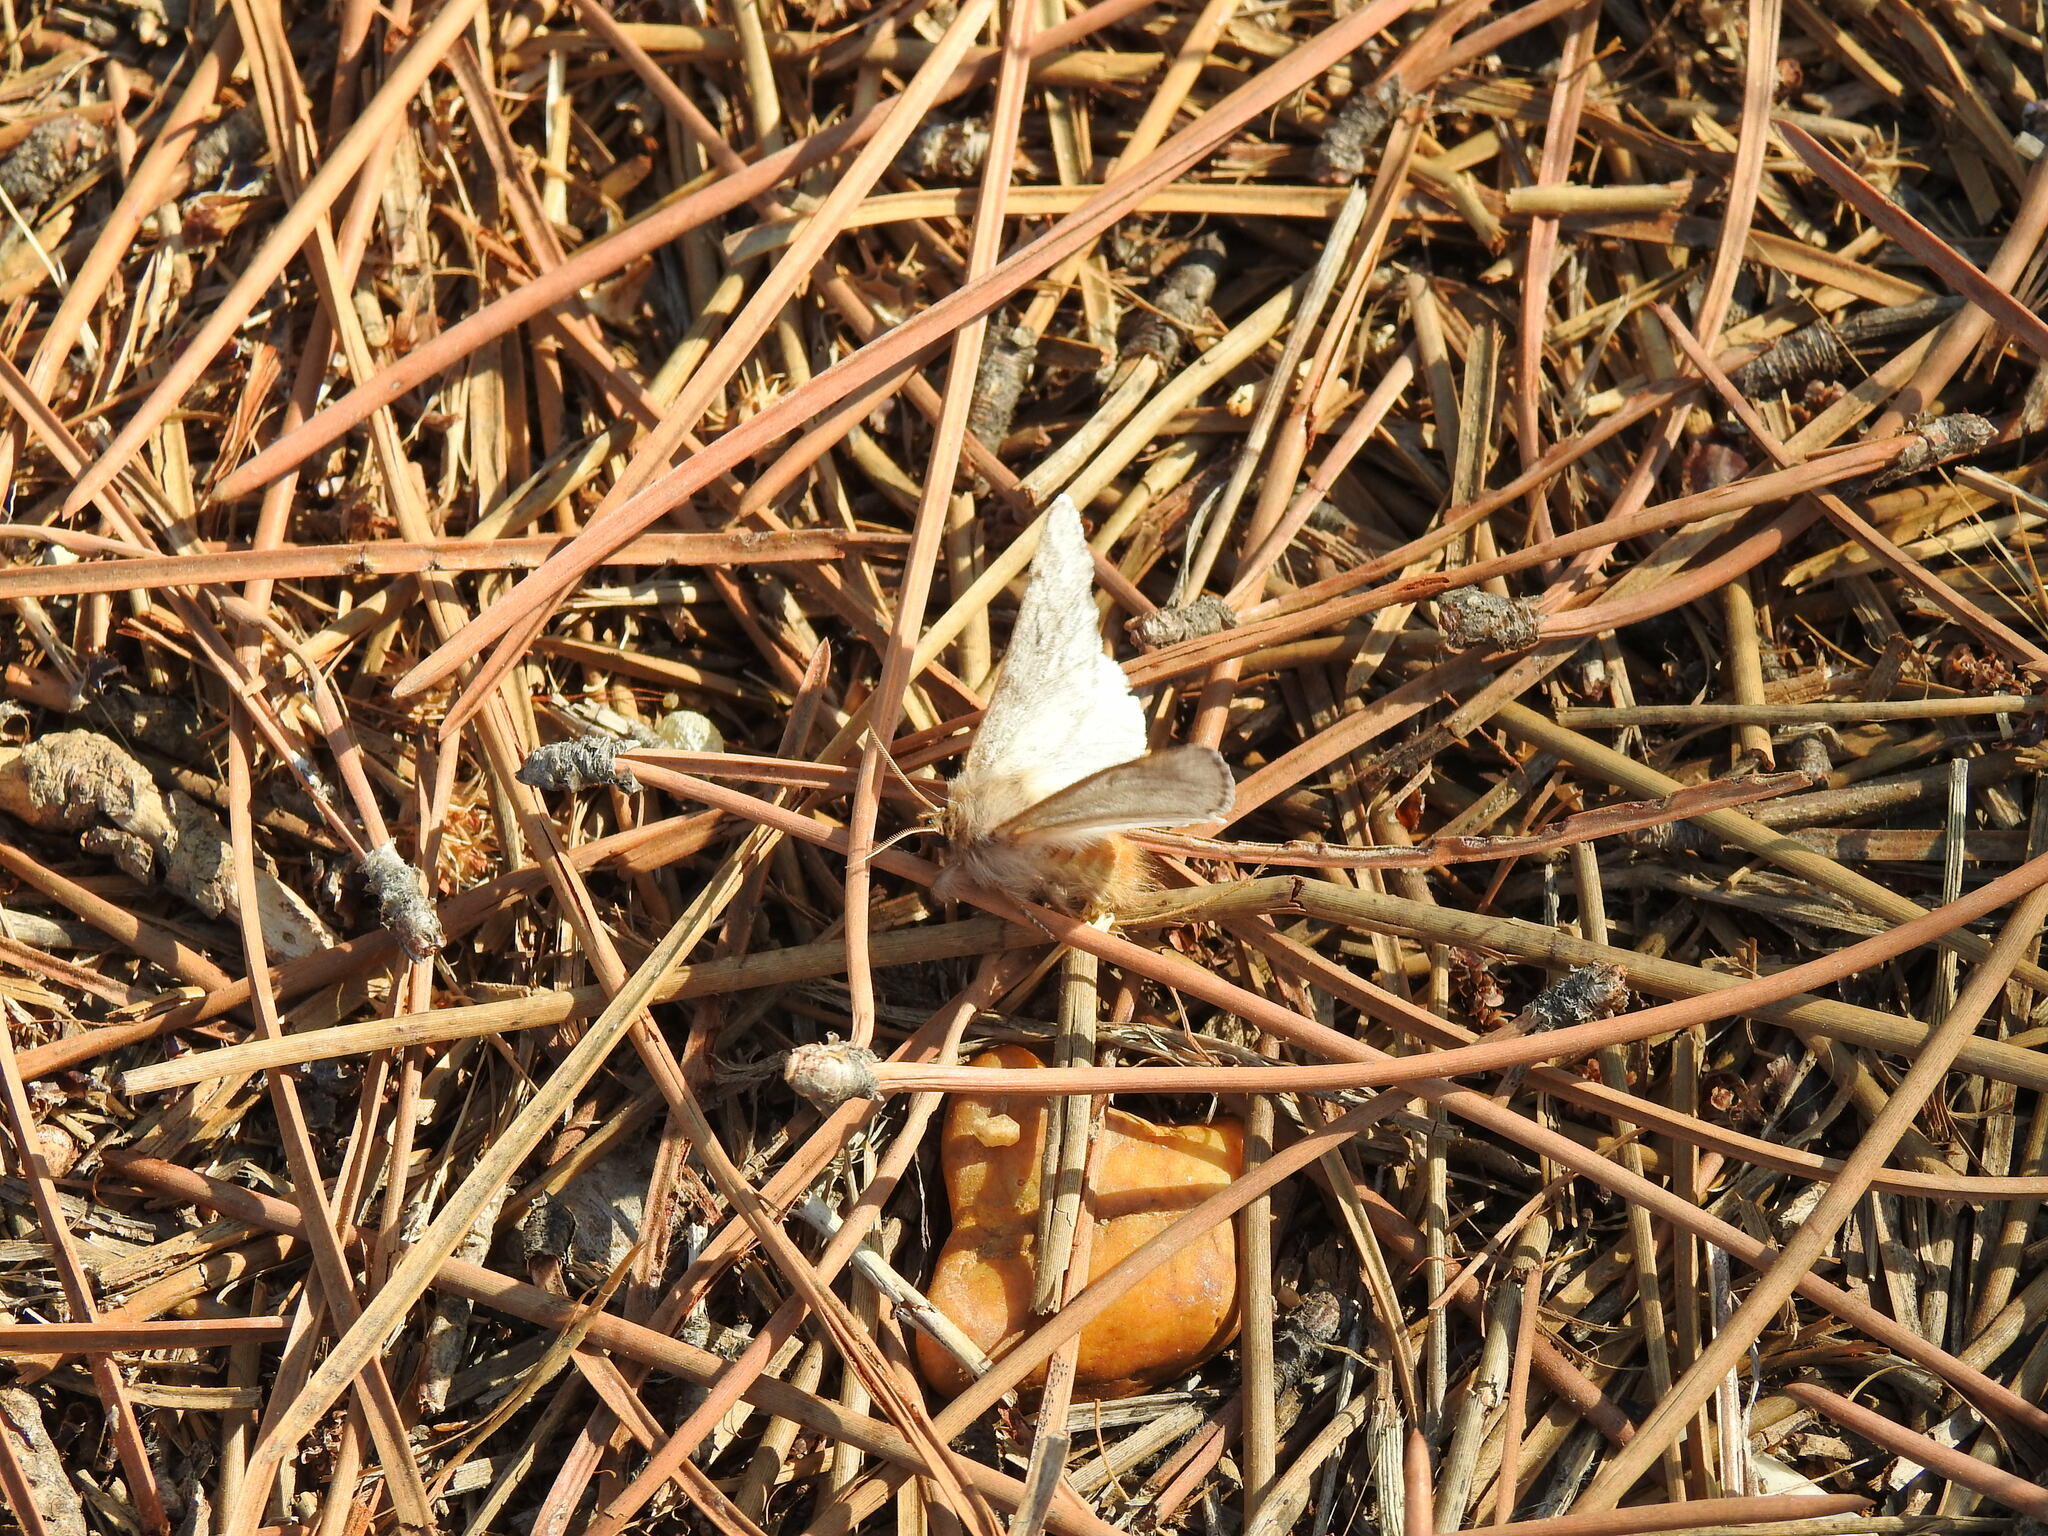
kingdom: Animalia
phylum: Arthropoda
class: Insecta
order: Lepidoptera
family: Notodontidae
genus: Thaumetopoea
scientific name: Thaumetopoea pityocampa
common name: Pine processionary
